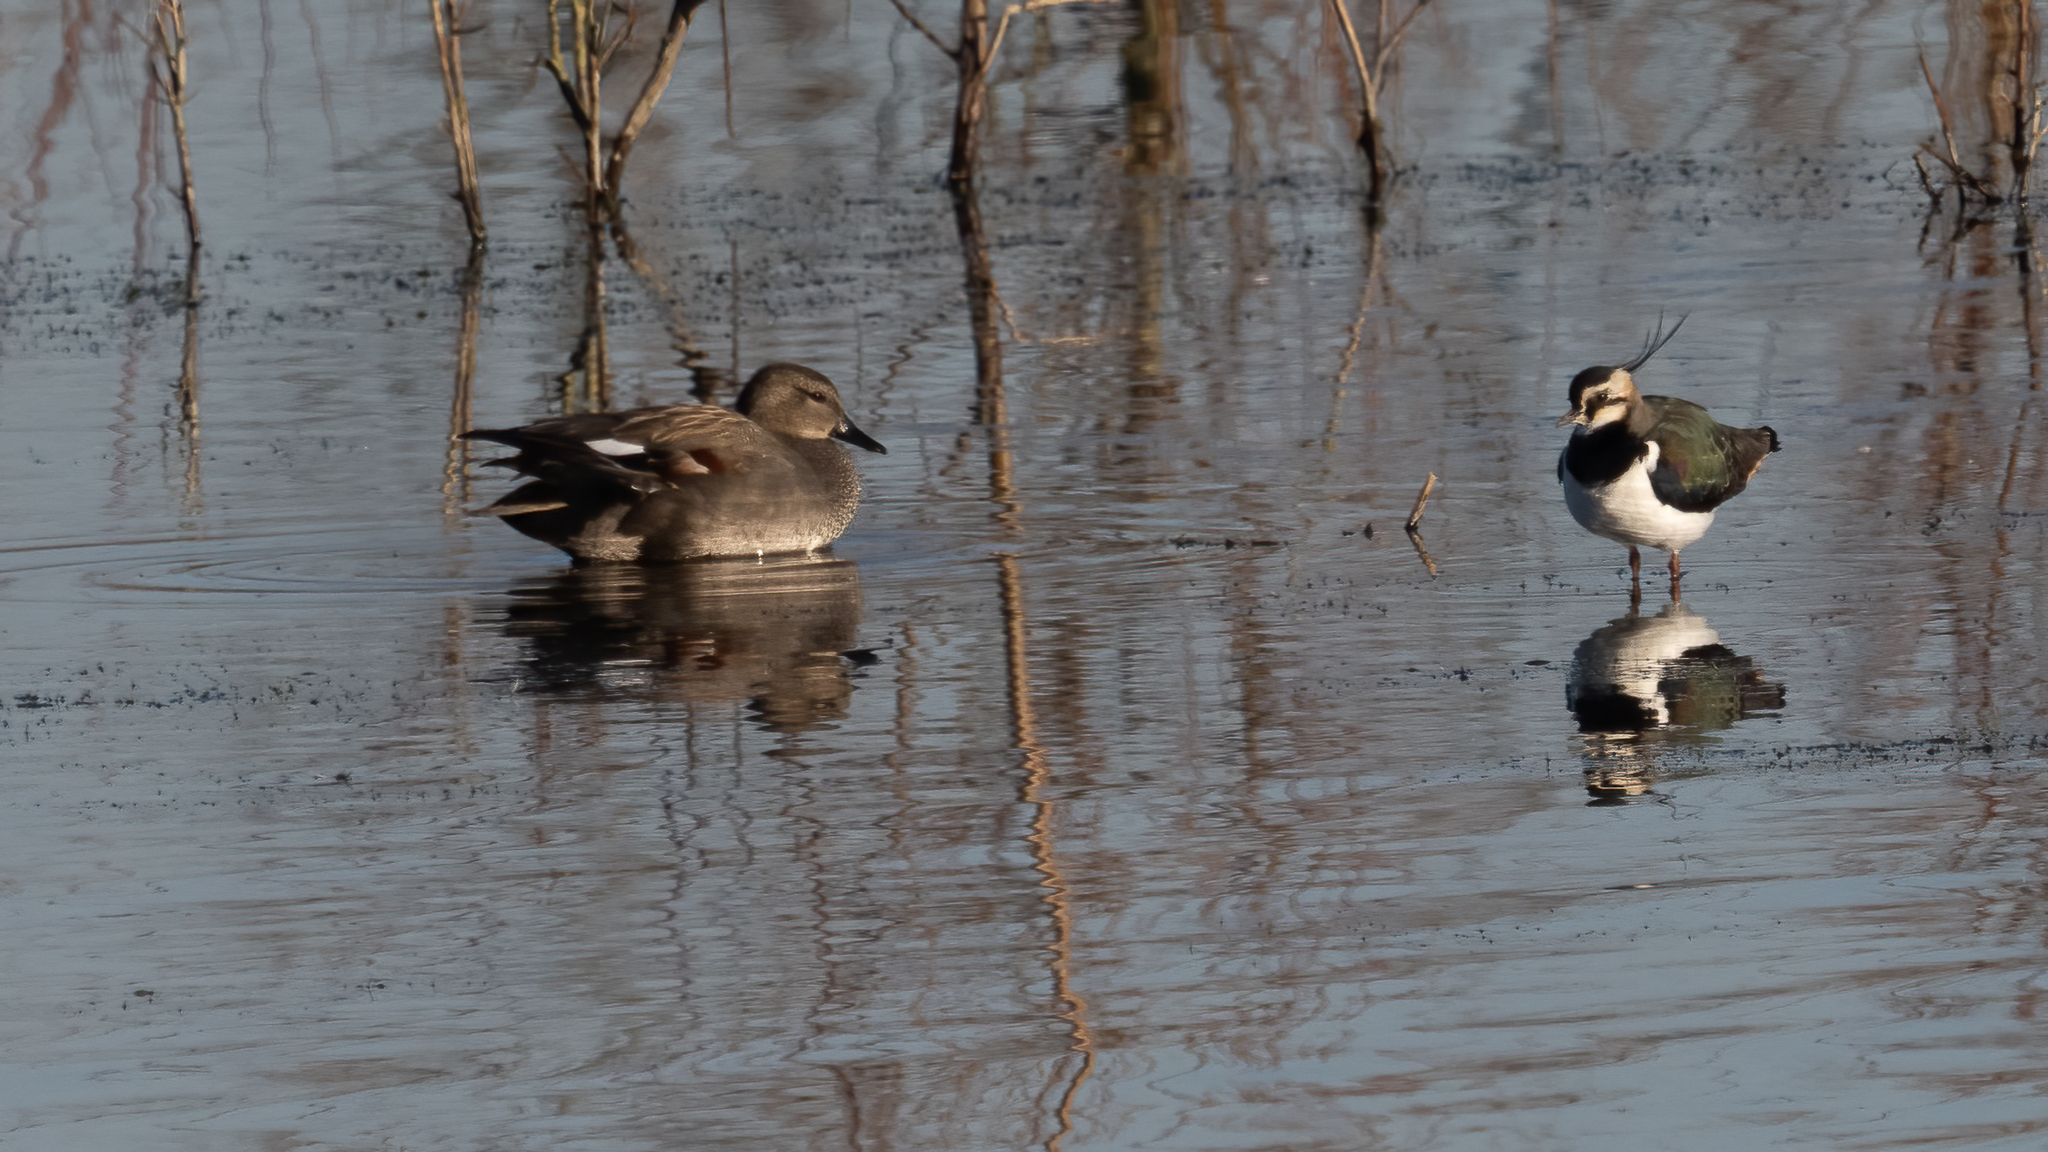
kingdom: Animalia
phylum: Chordata
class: Aves
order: Anseriformes
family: Anatidae
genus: Mareca
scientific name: Mareca strepera
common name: Gadwall
